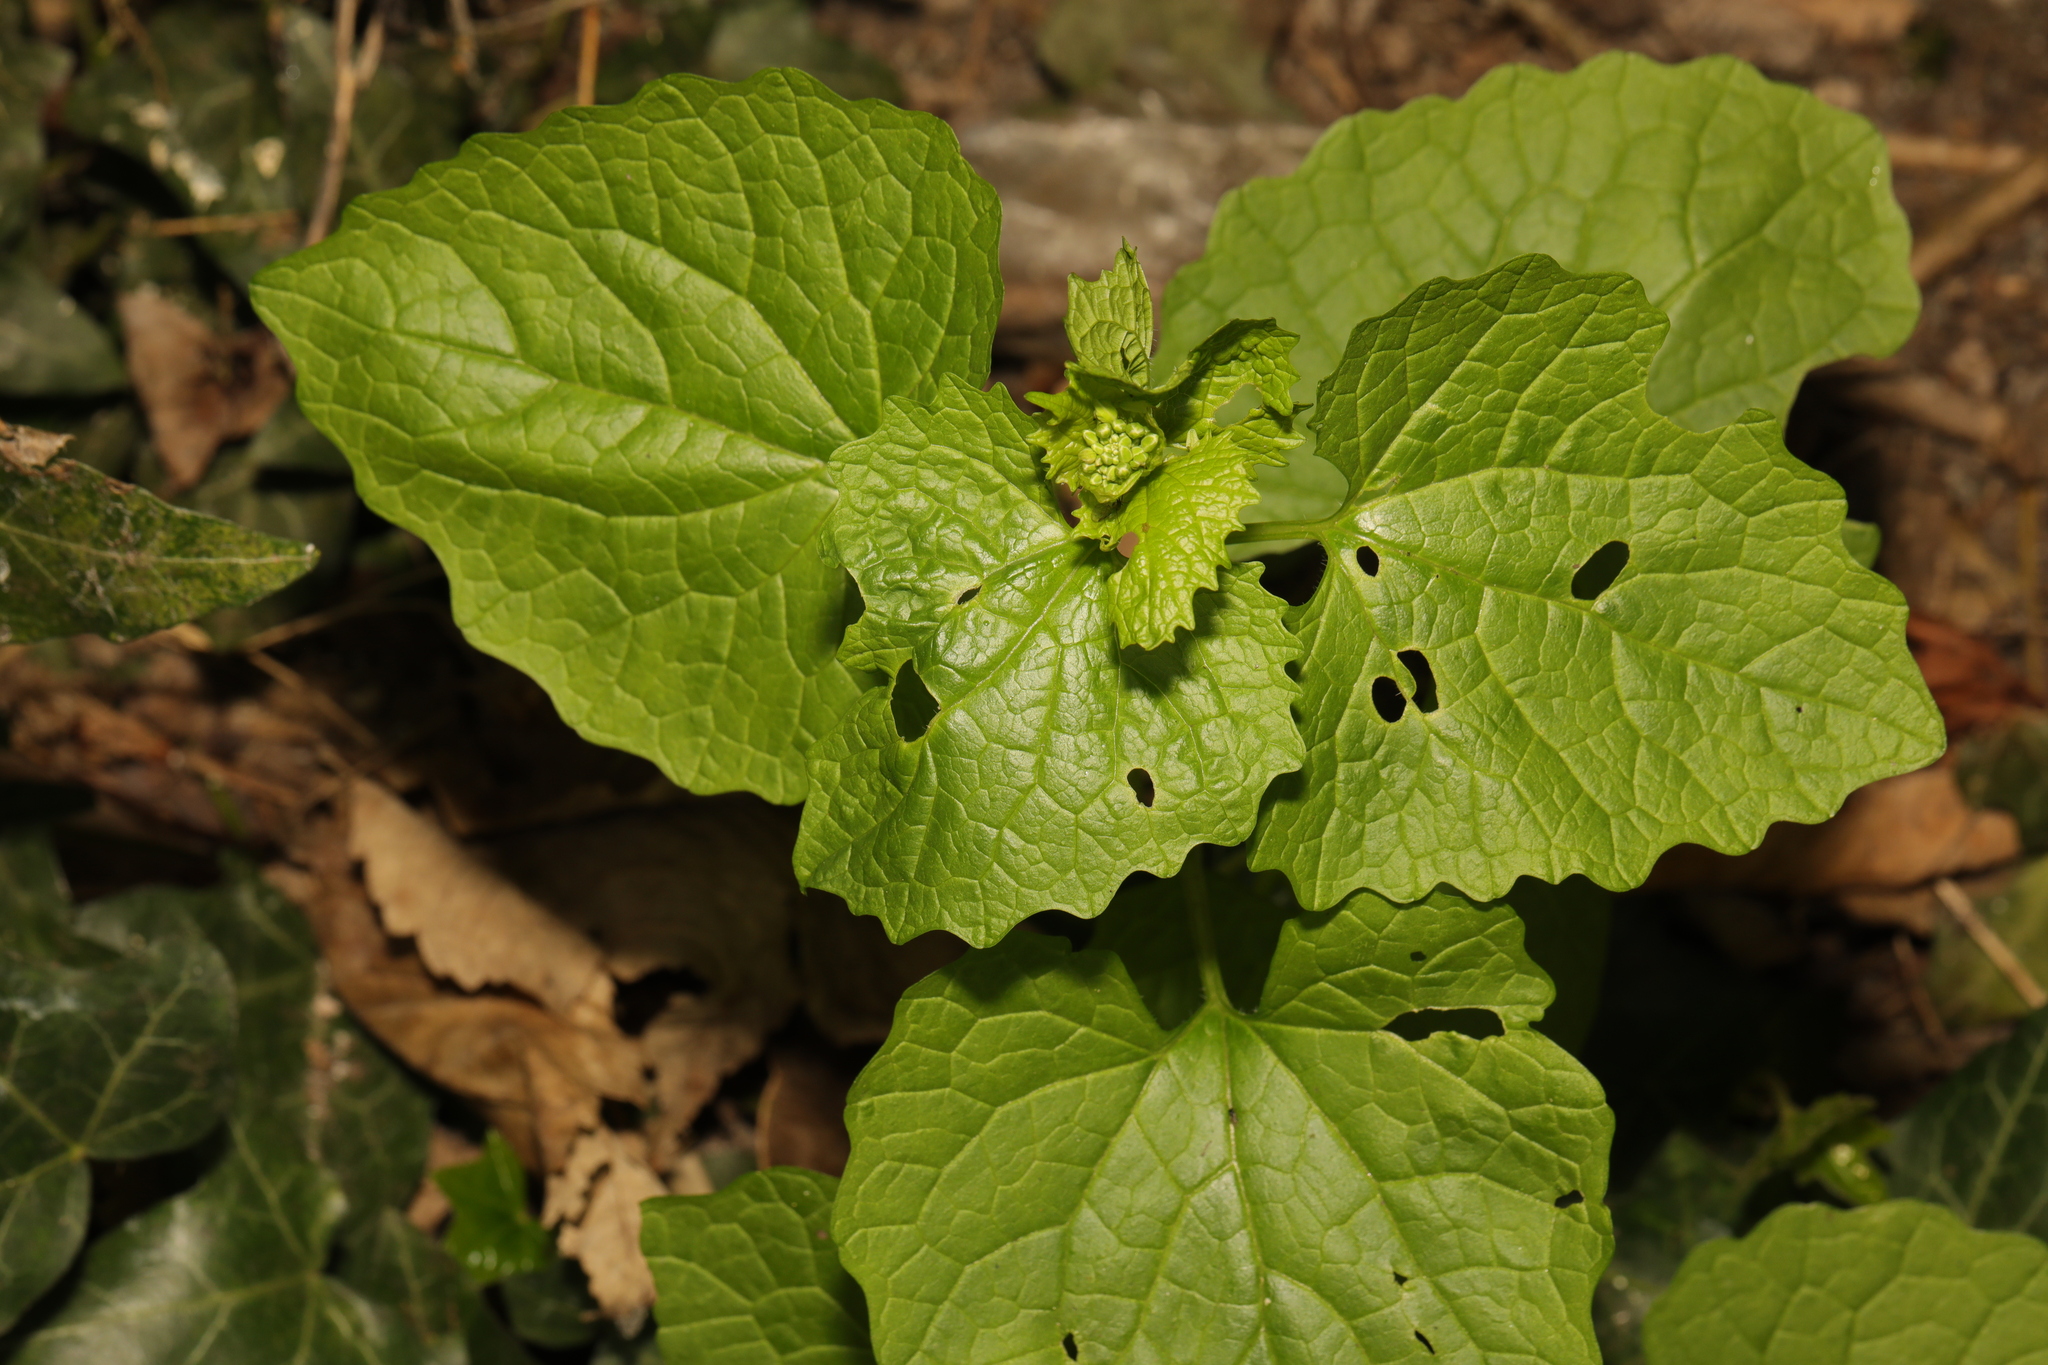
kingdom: Plantae
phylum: Tracheophyta
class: Magnoliopsida
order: Brassicales
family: Brassicaceae
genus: Alliaria
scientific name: Alliaria petiolata
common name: Garlic mustard
